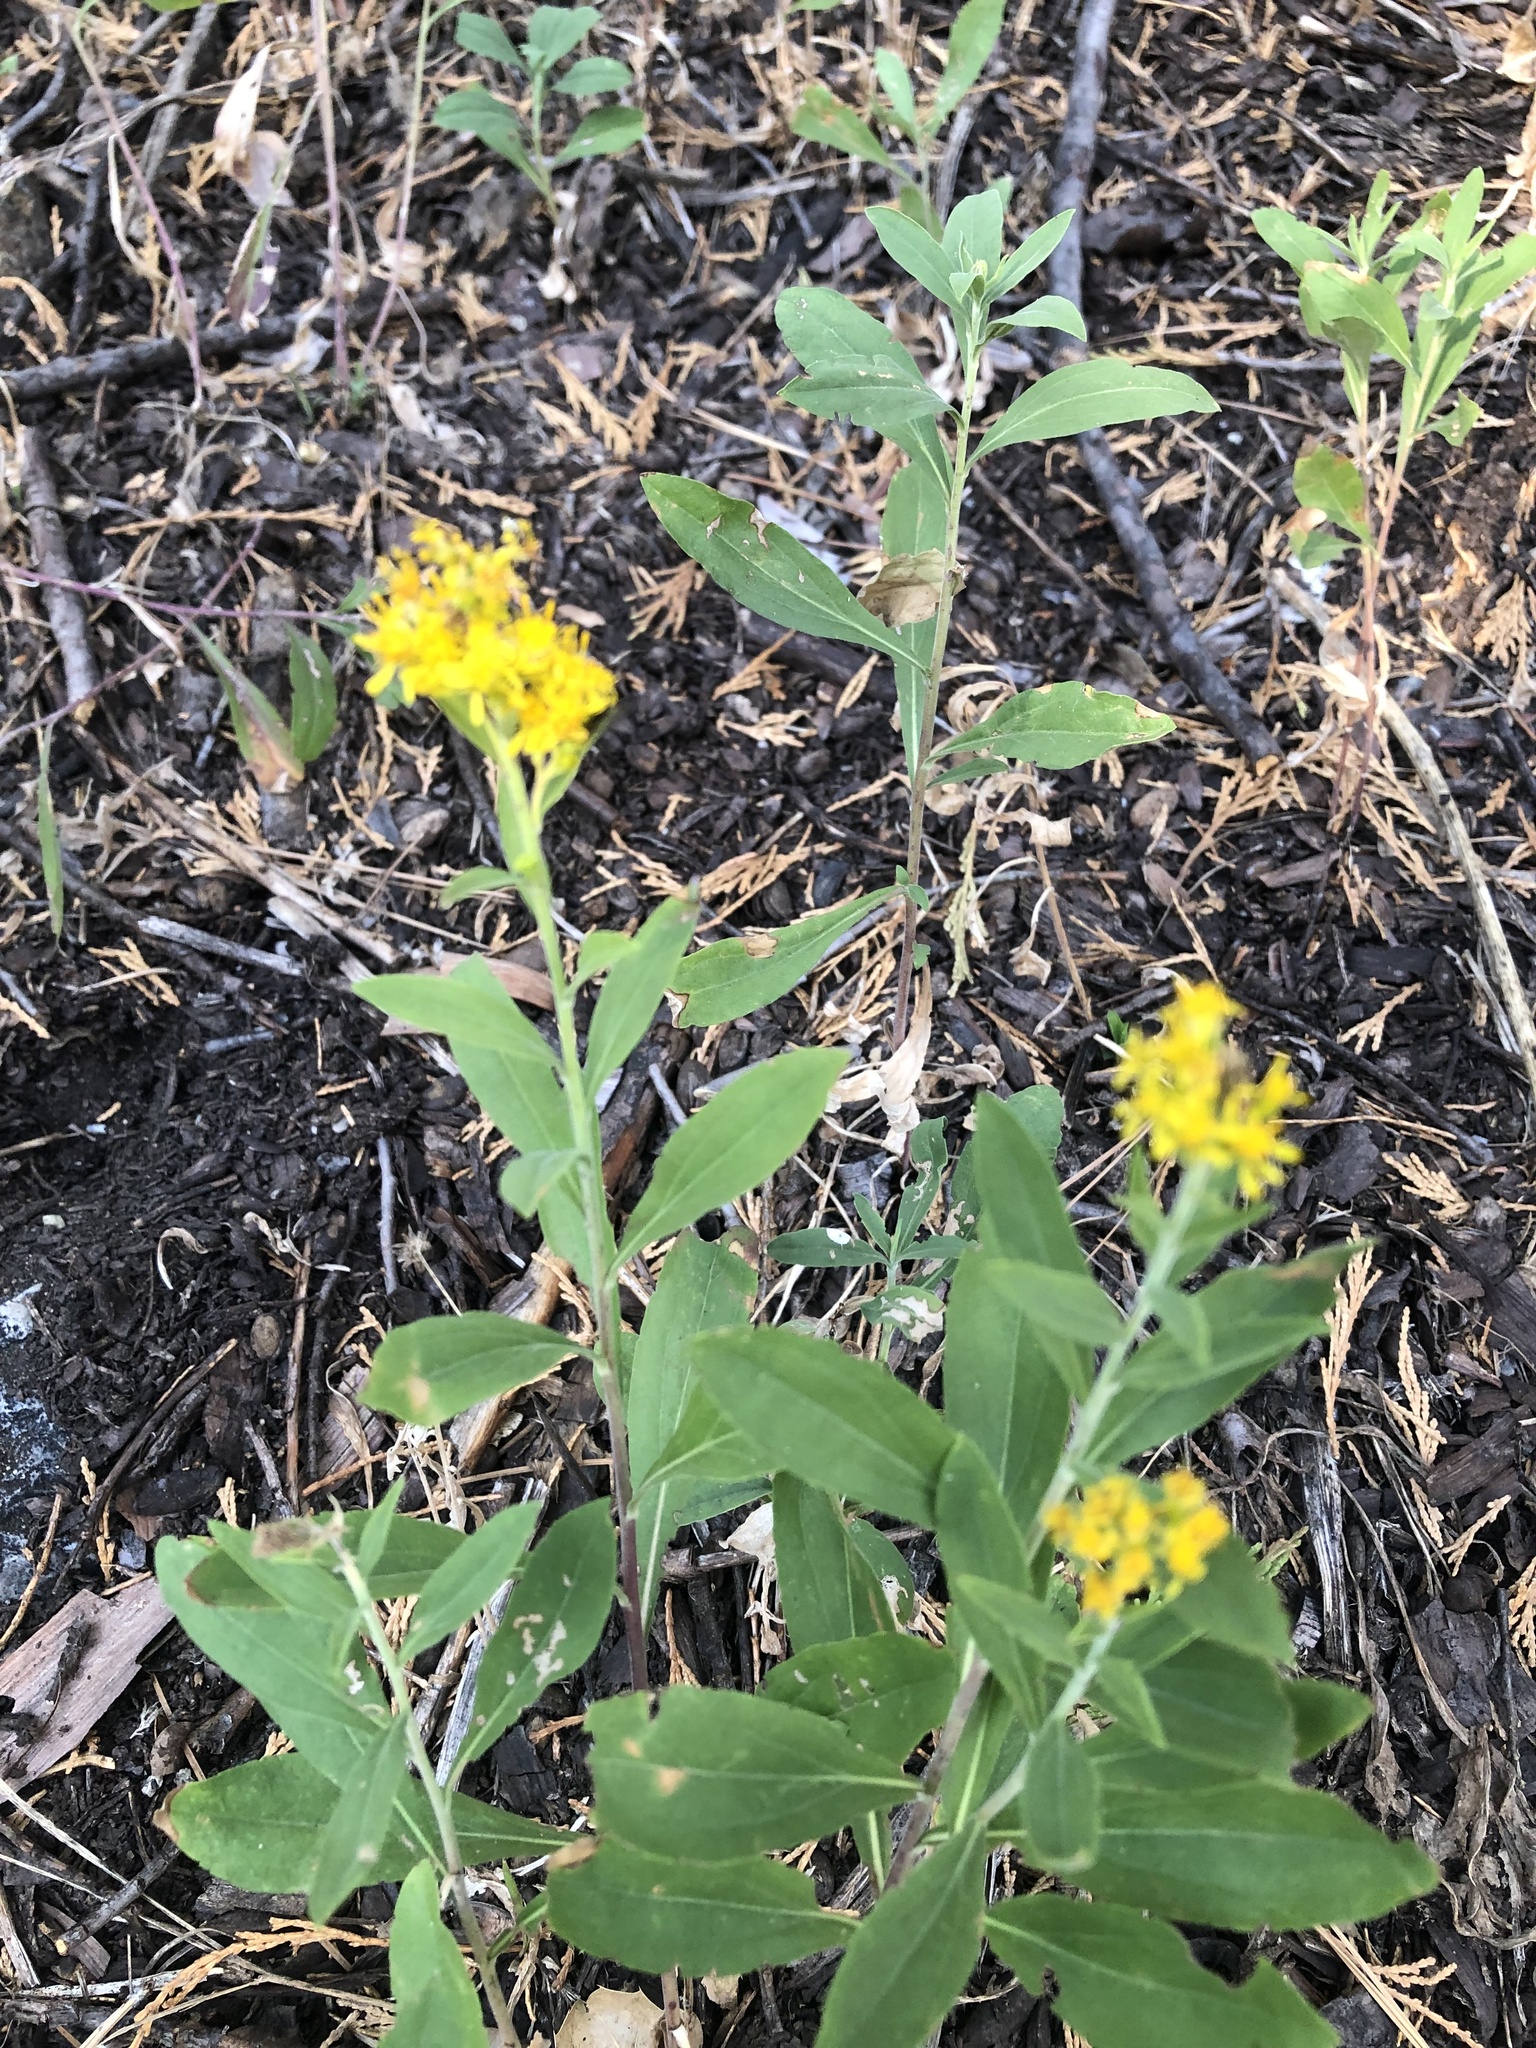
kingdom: Plantae
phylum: Tracheophyta
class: Magnoliopsida
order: Asterales
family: Asteraceae
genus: Solidago
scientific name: Solidago velutina
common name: Three-nerve goldenrod
